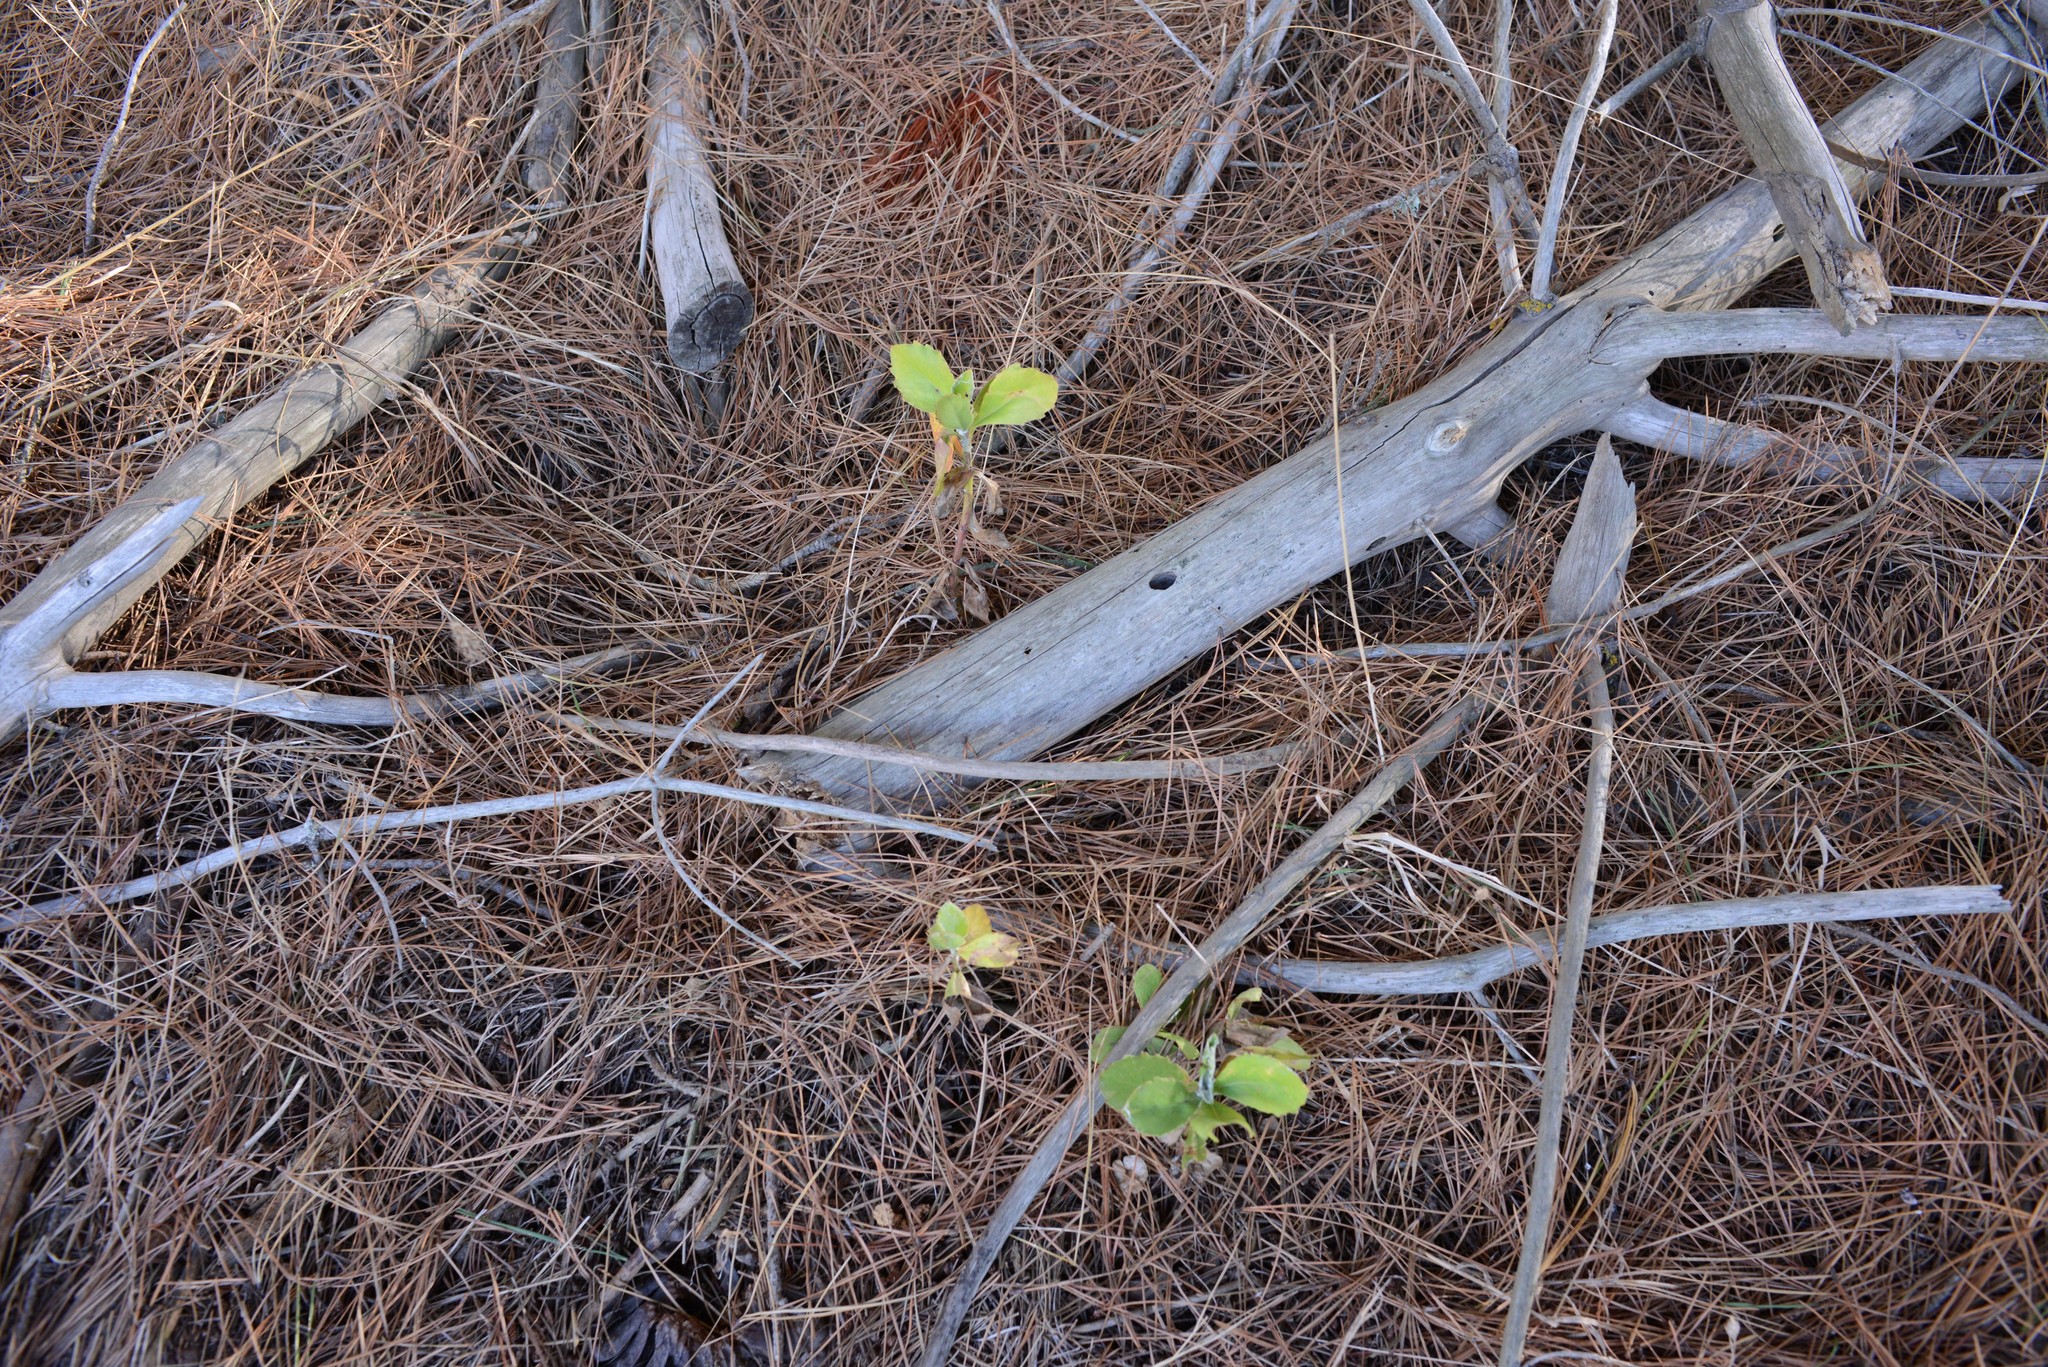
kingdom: Plantae
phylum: Tracheophyta
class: Magnoliopsida
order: Asterales
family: Asteraceae
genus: Osteospermum
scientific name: Osteospermum moniliferum
